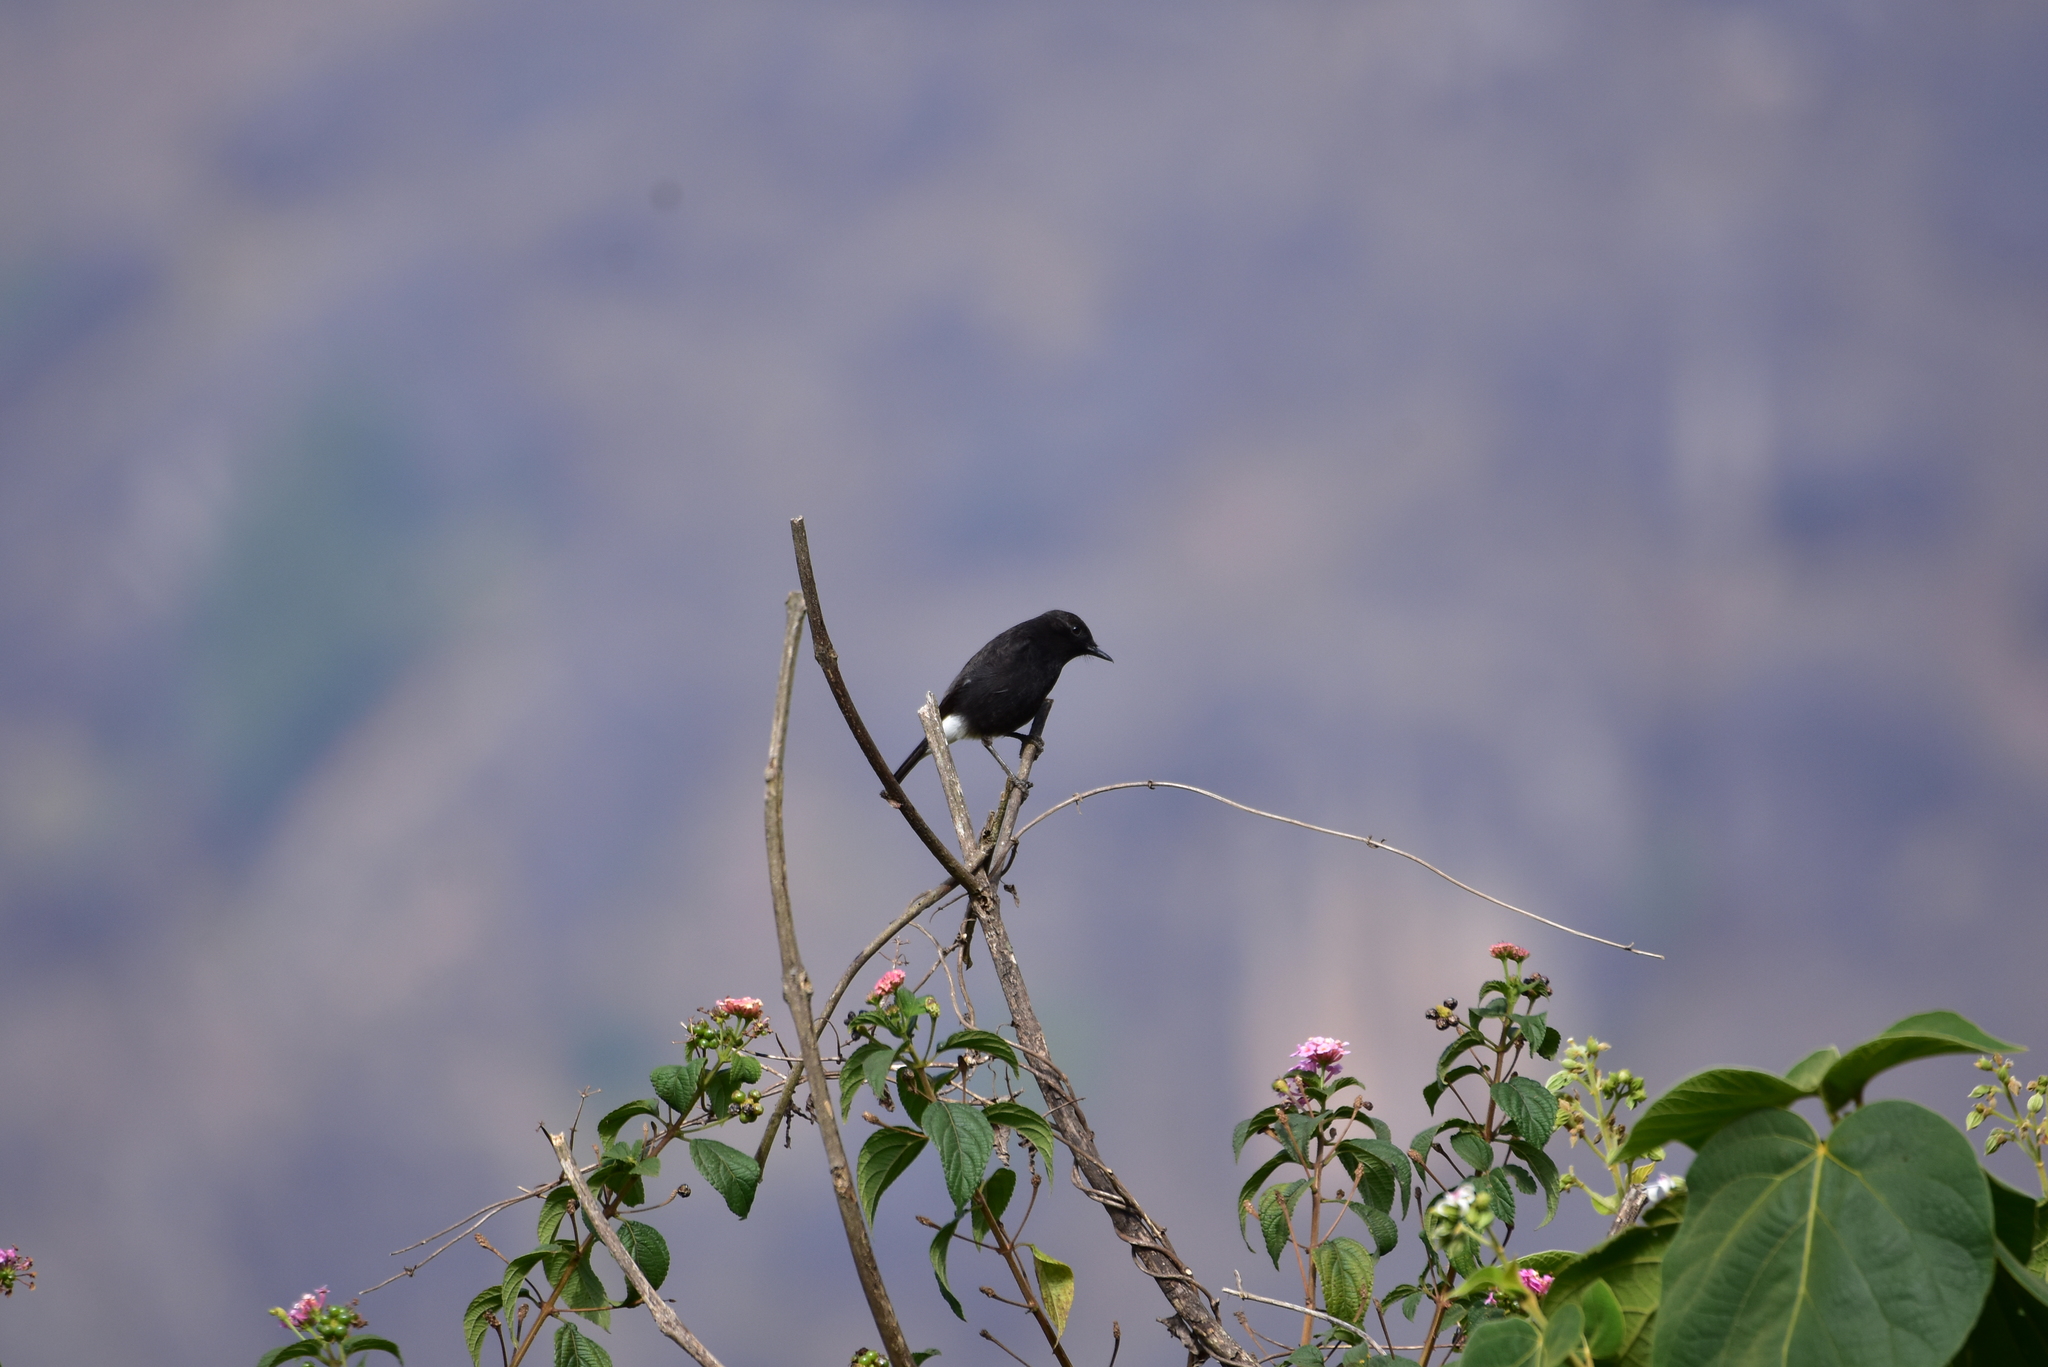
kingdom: Animalia
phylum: Chordata
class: Aves
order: Passeriformes
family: Muscicapidae
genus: Saxicola
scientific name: Saxicola caprata
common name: Pied bush chat
